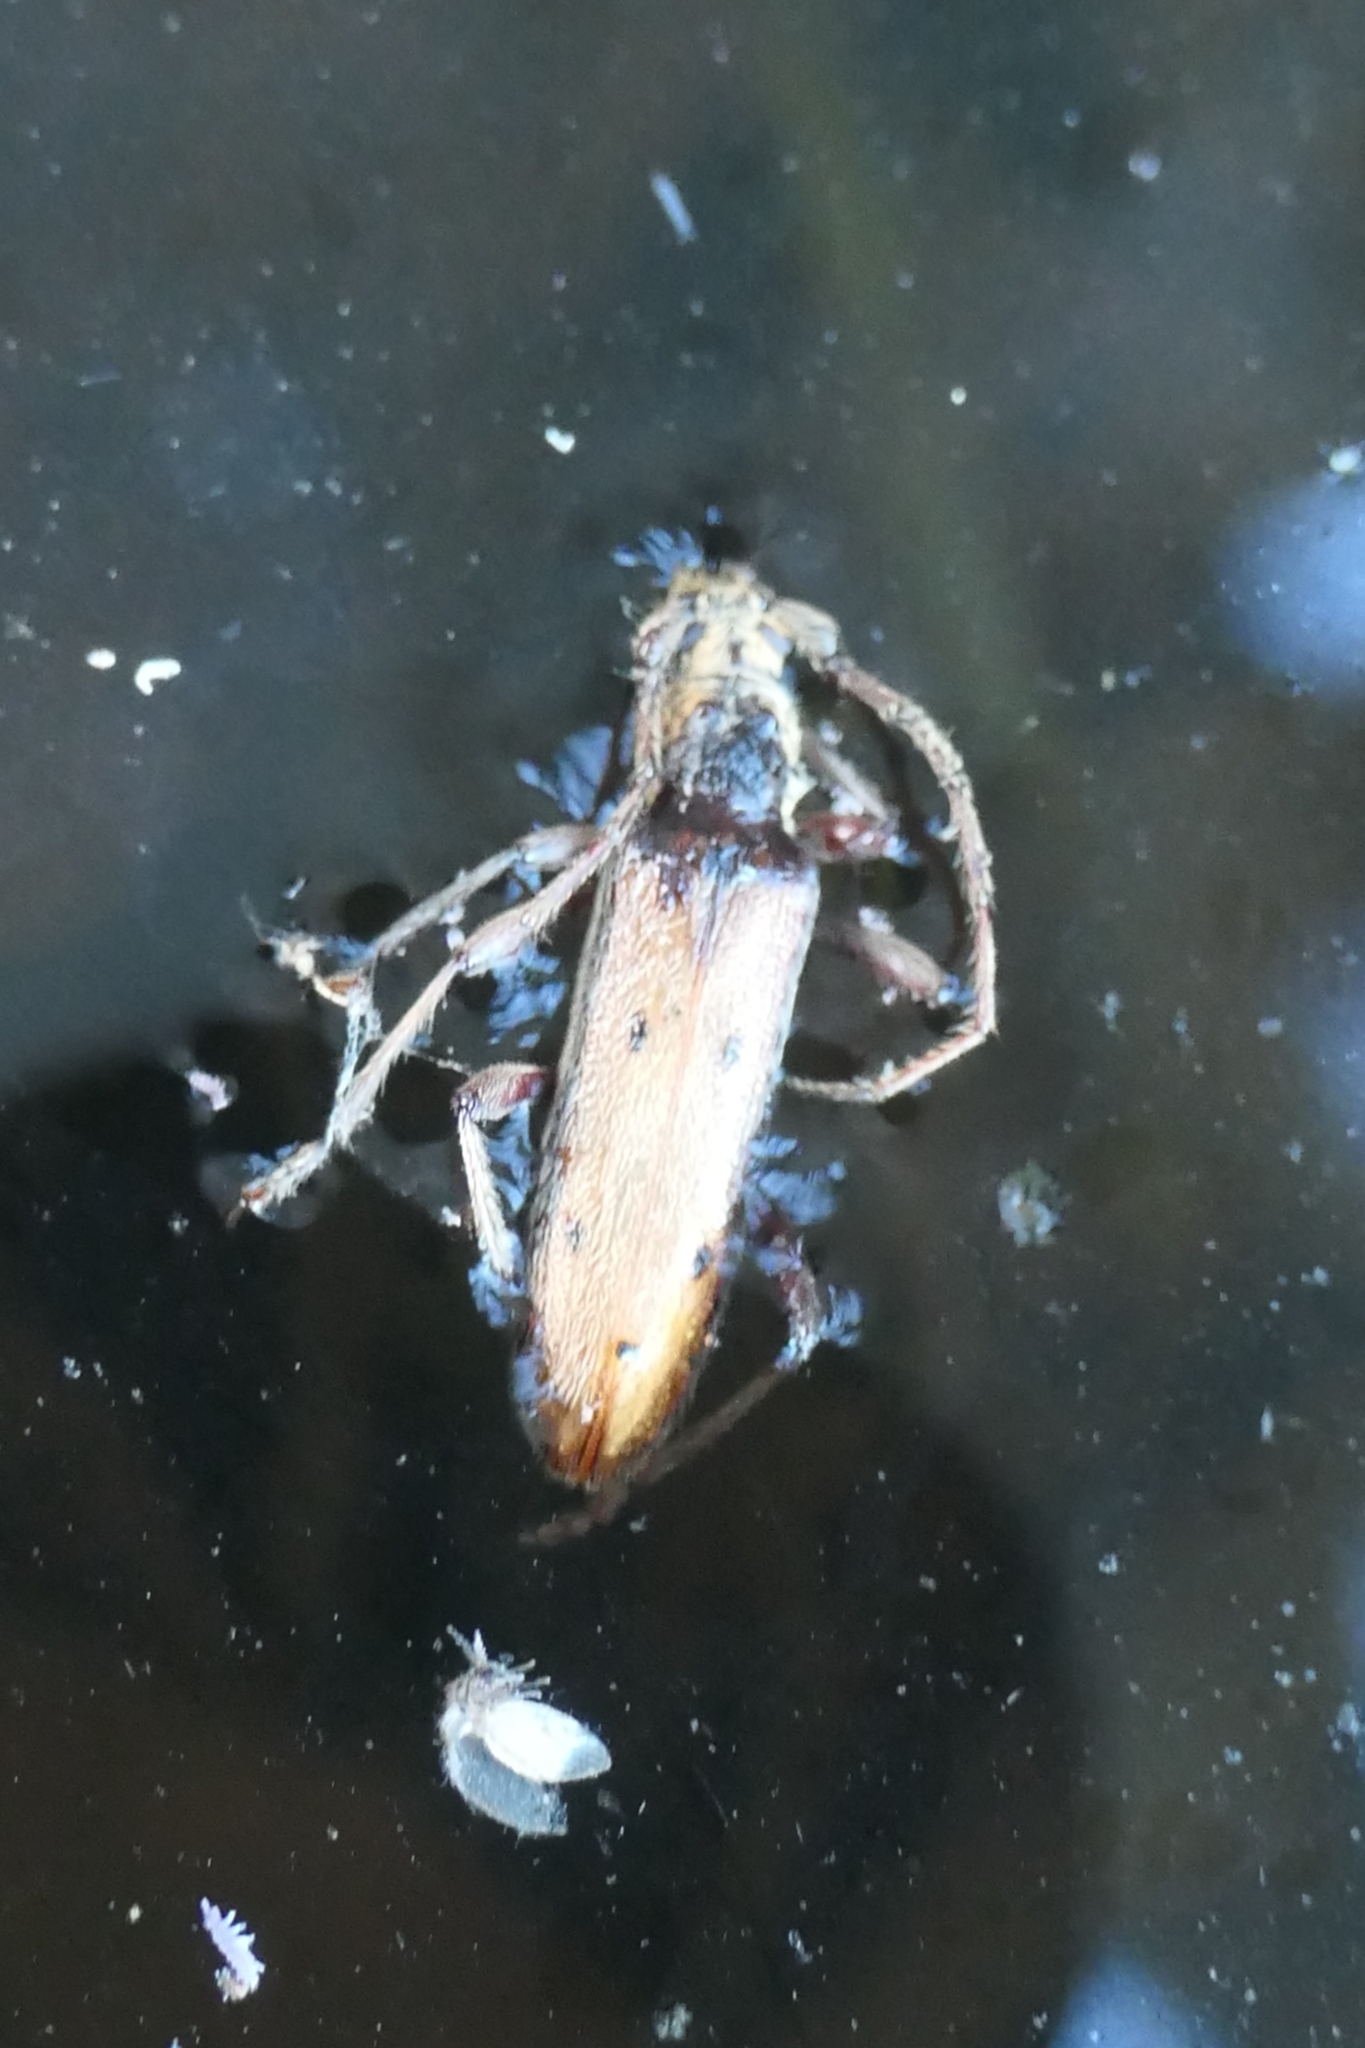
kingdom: Animalia
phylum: Arthropoda
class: Insecta
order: Coleoptera
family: Cerambycidae
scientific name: Cerambycidae
